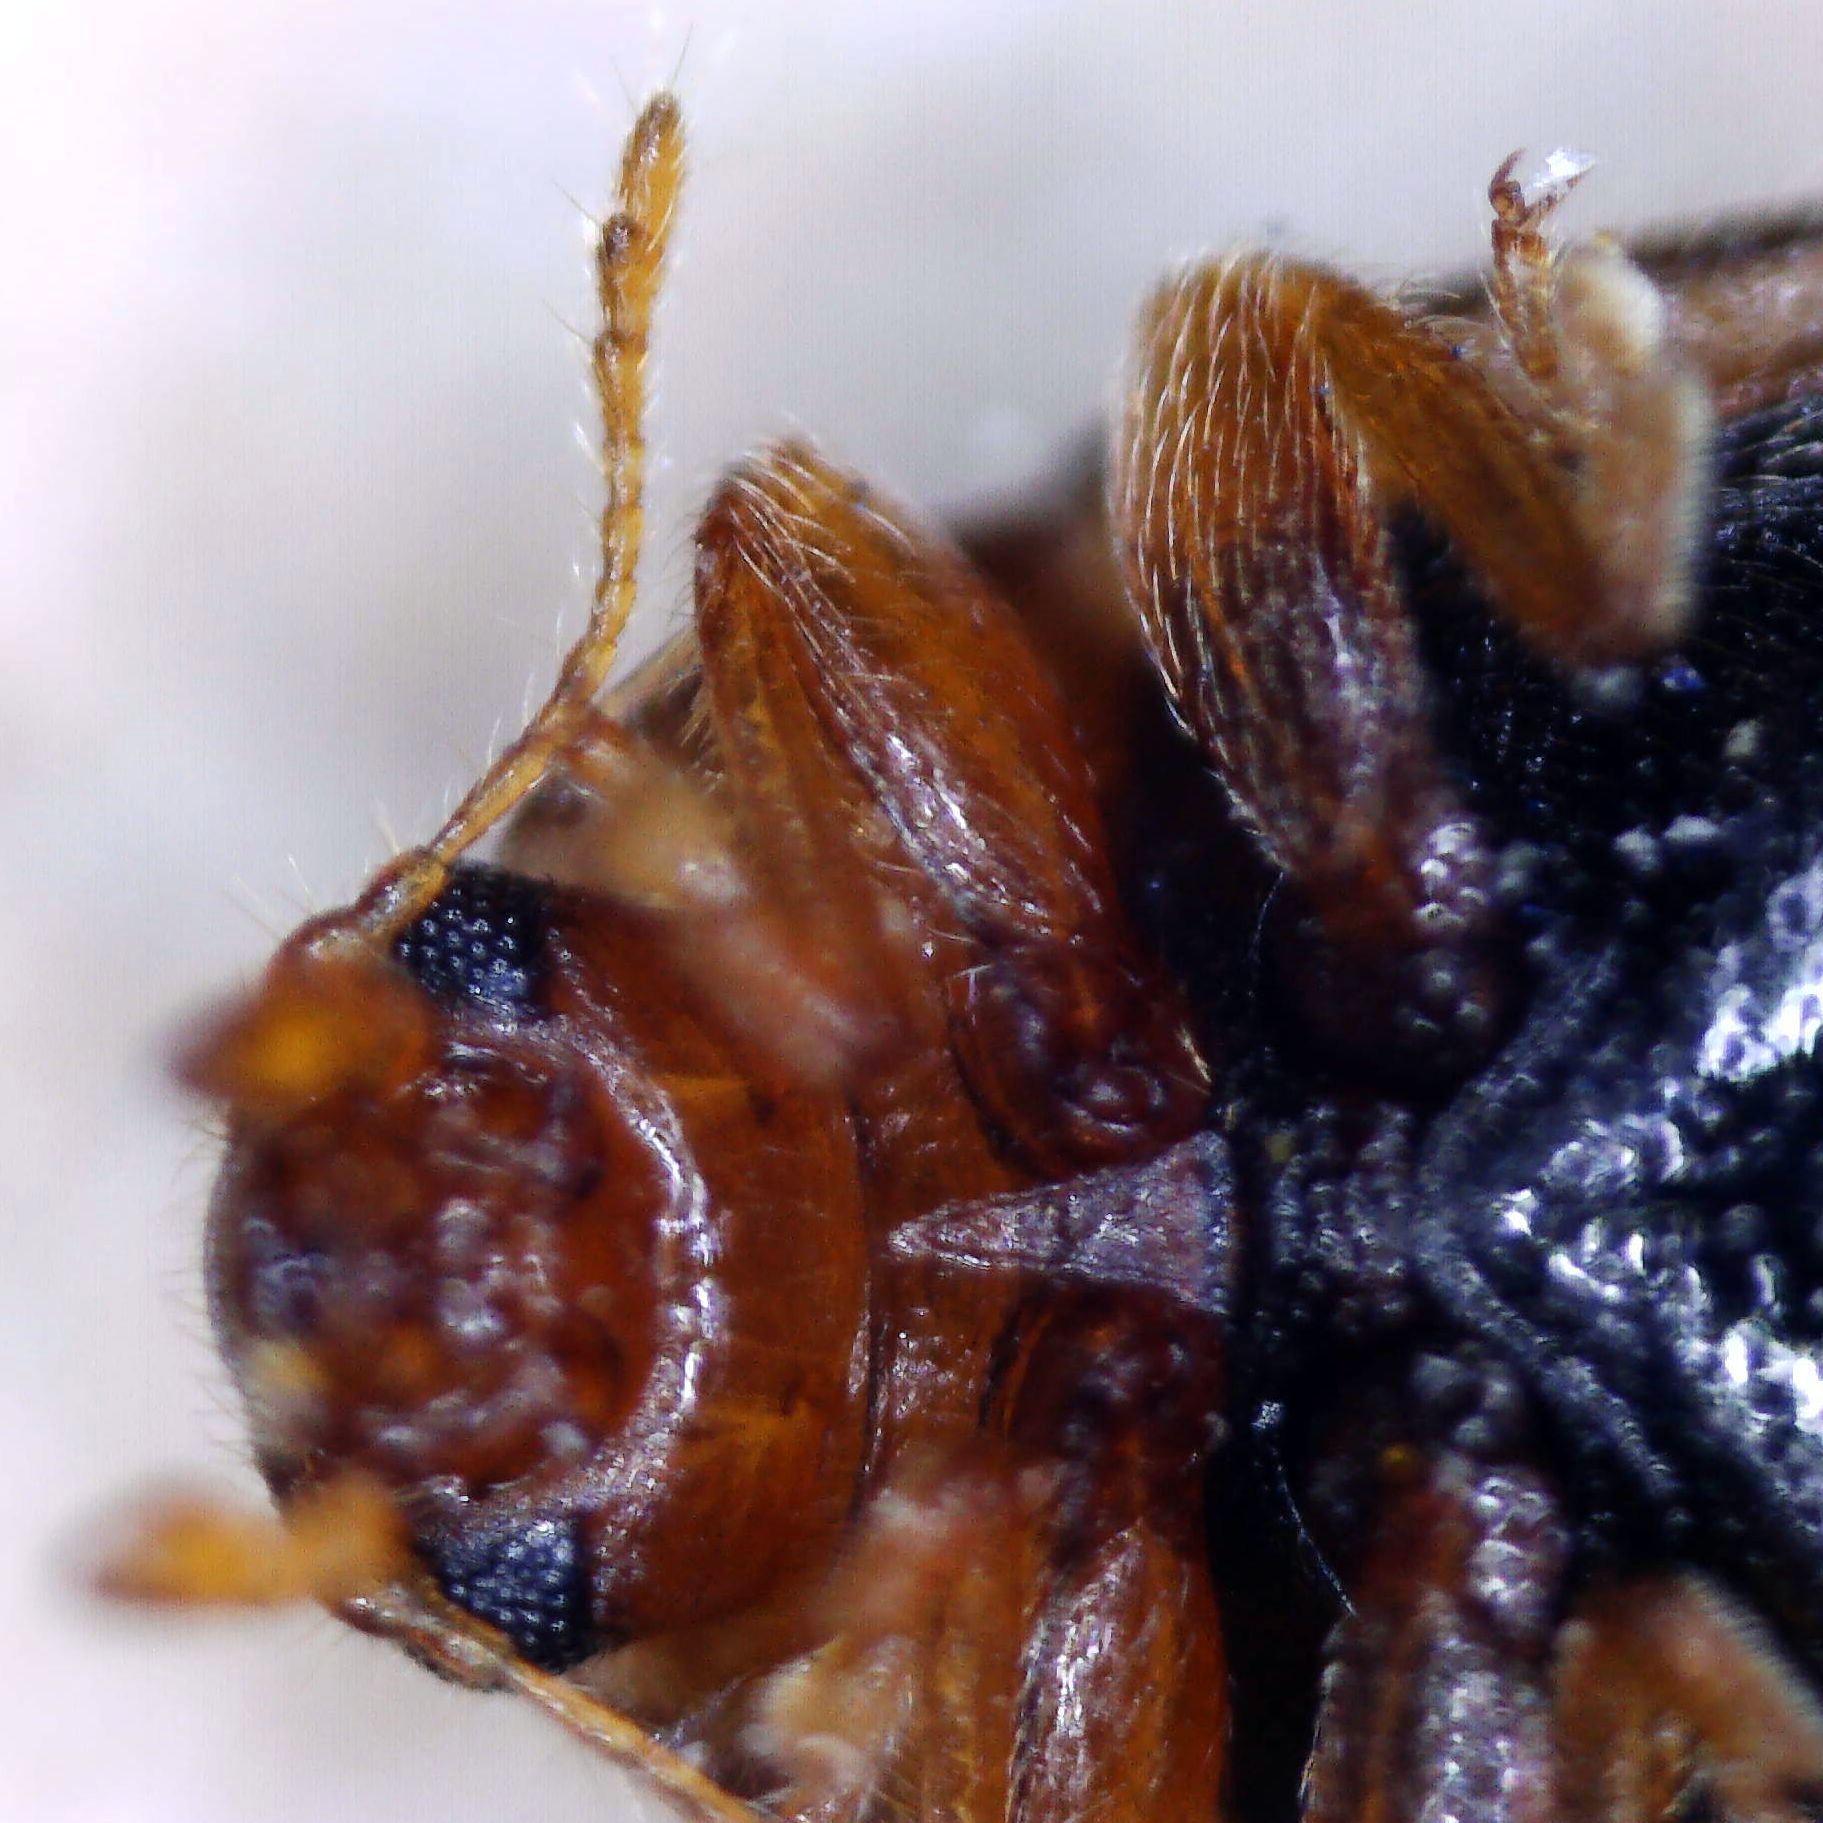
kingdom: Animalia
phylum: Arthropoda
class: Insecta
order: Coleoptera
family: Coccinellidae
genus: Rhyzobius
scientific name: Rhyzobius litura
